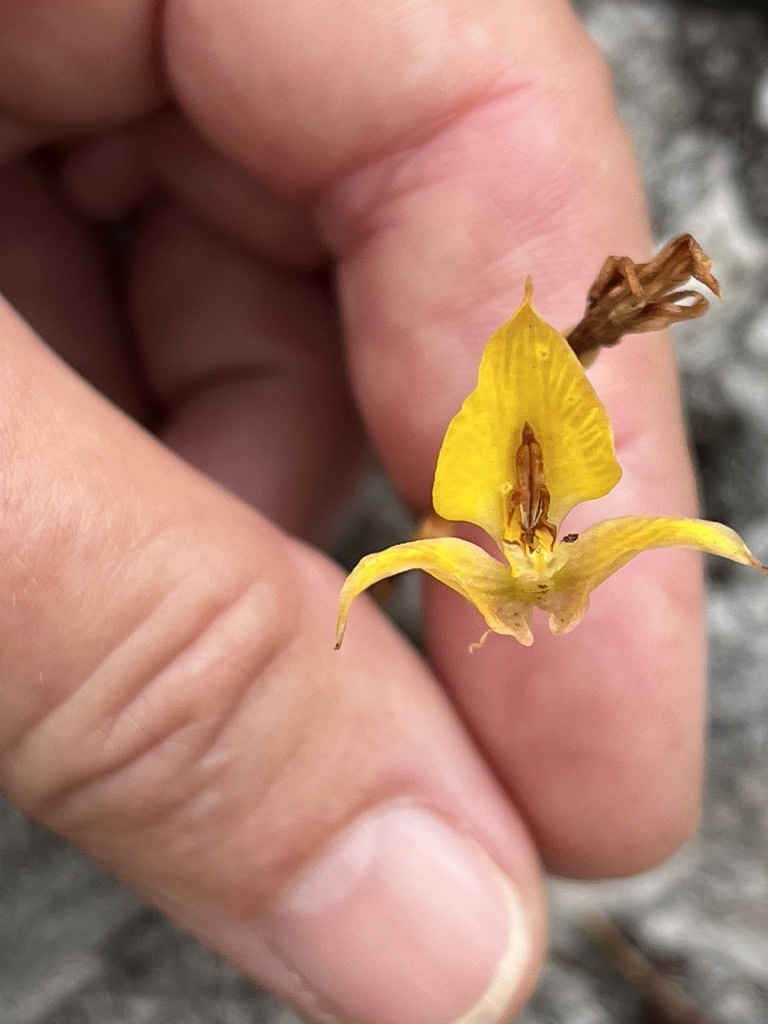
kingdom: Plantae
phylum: Tracheophyta
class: Liliopsida
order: Asparagales
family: Orchidaceae
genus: Disa
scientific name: Disa tenuifolia
